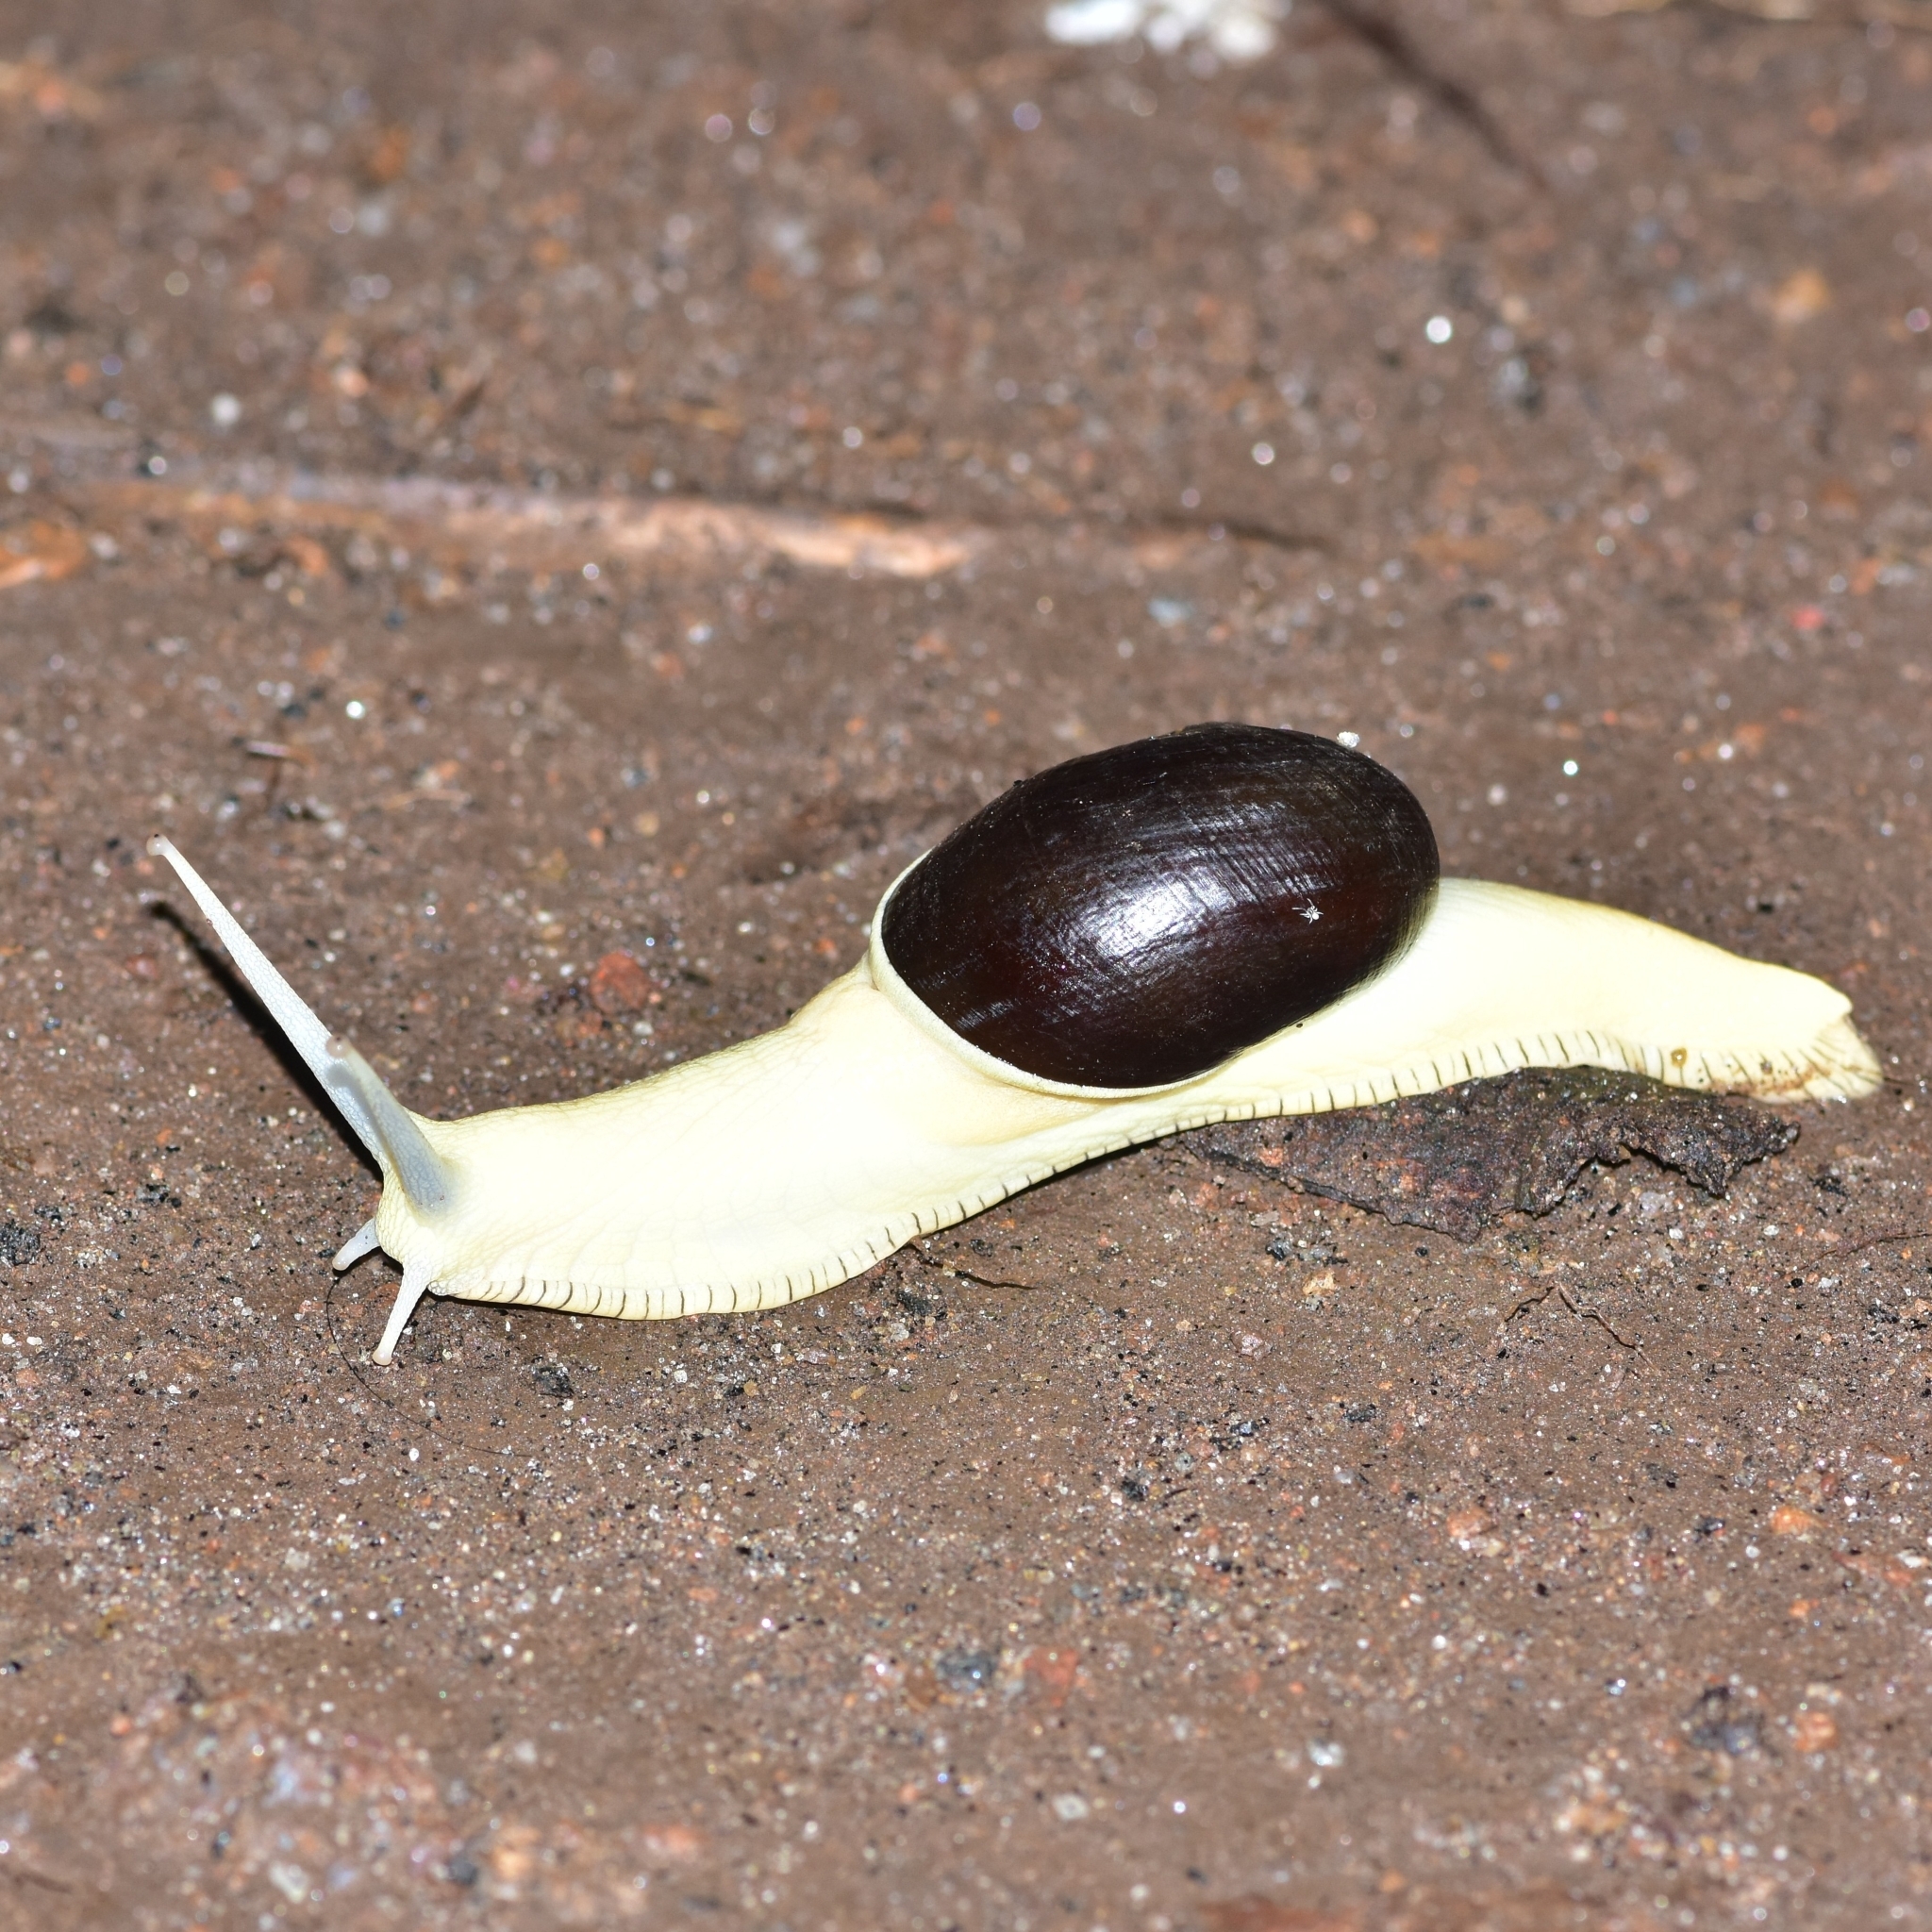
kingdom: Animalia
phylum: Mollusca
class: Gastropoda
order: Stylommatophora
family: Ariophantidae
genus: Indrella
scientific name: Indrella ampulla
